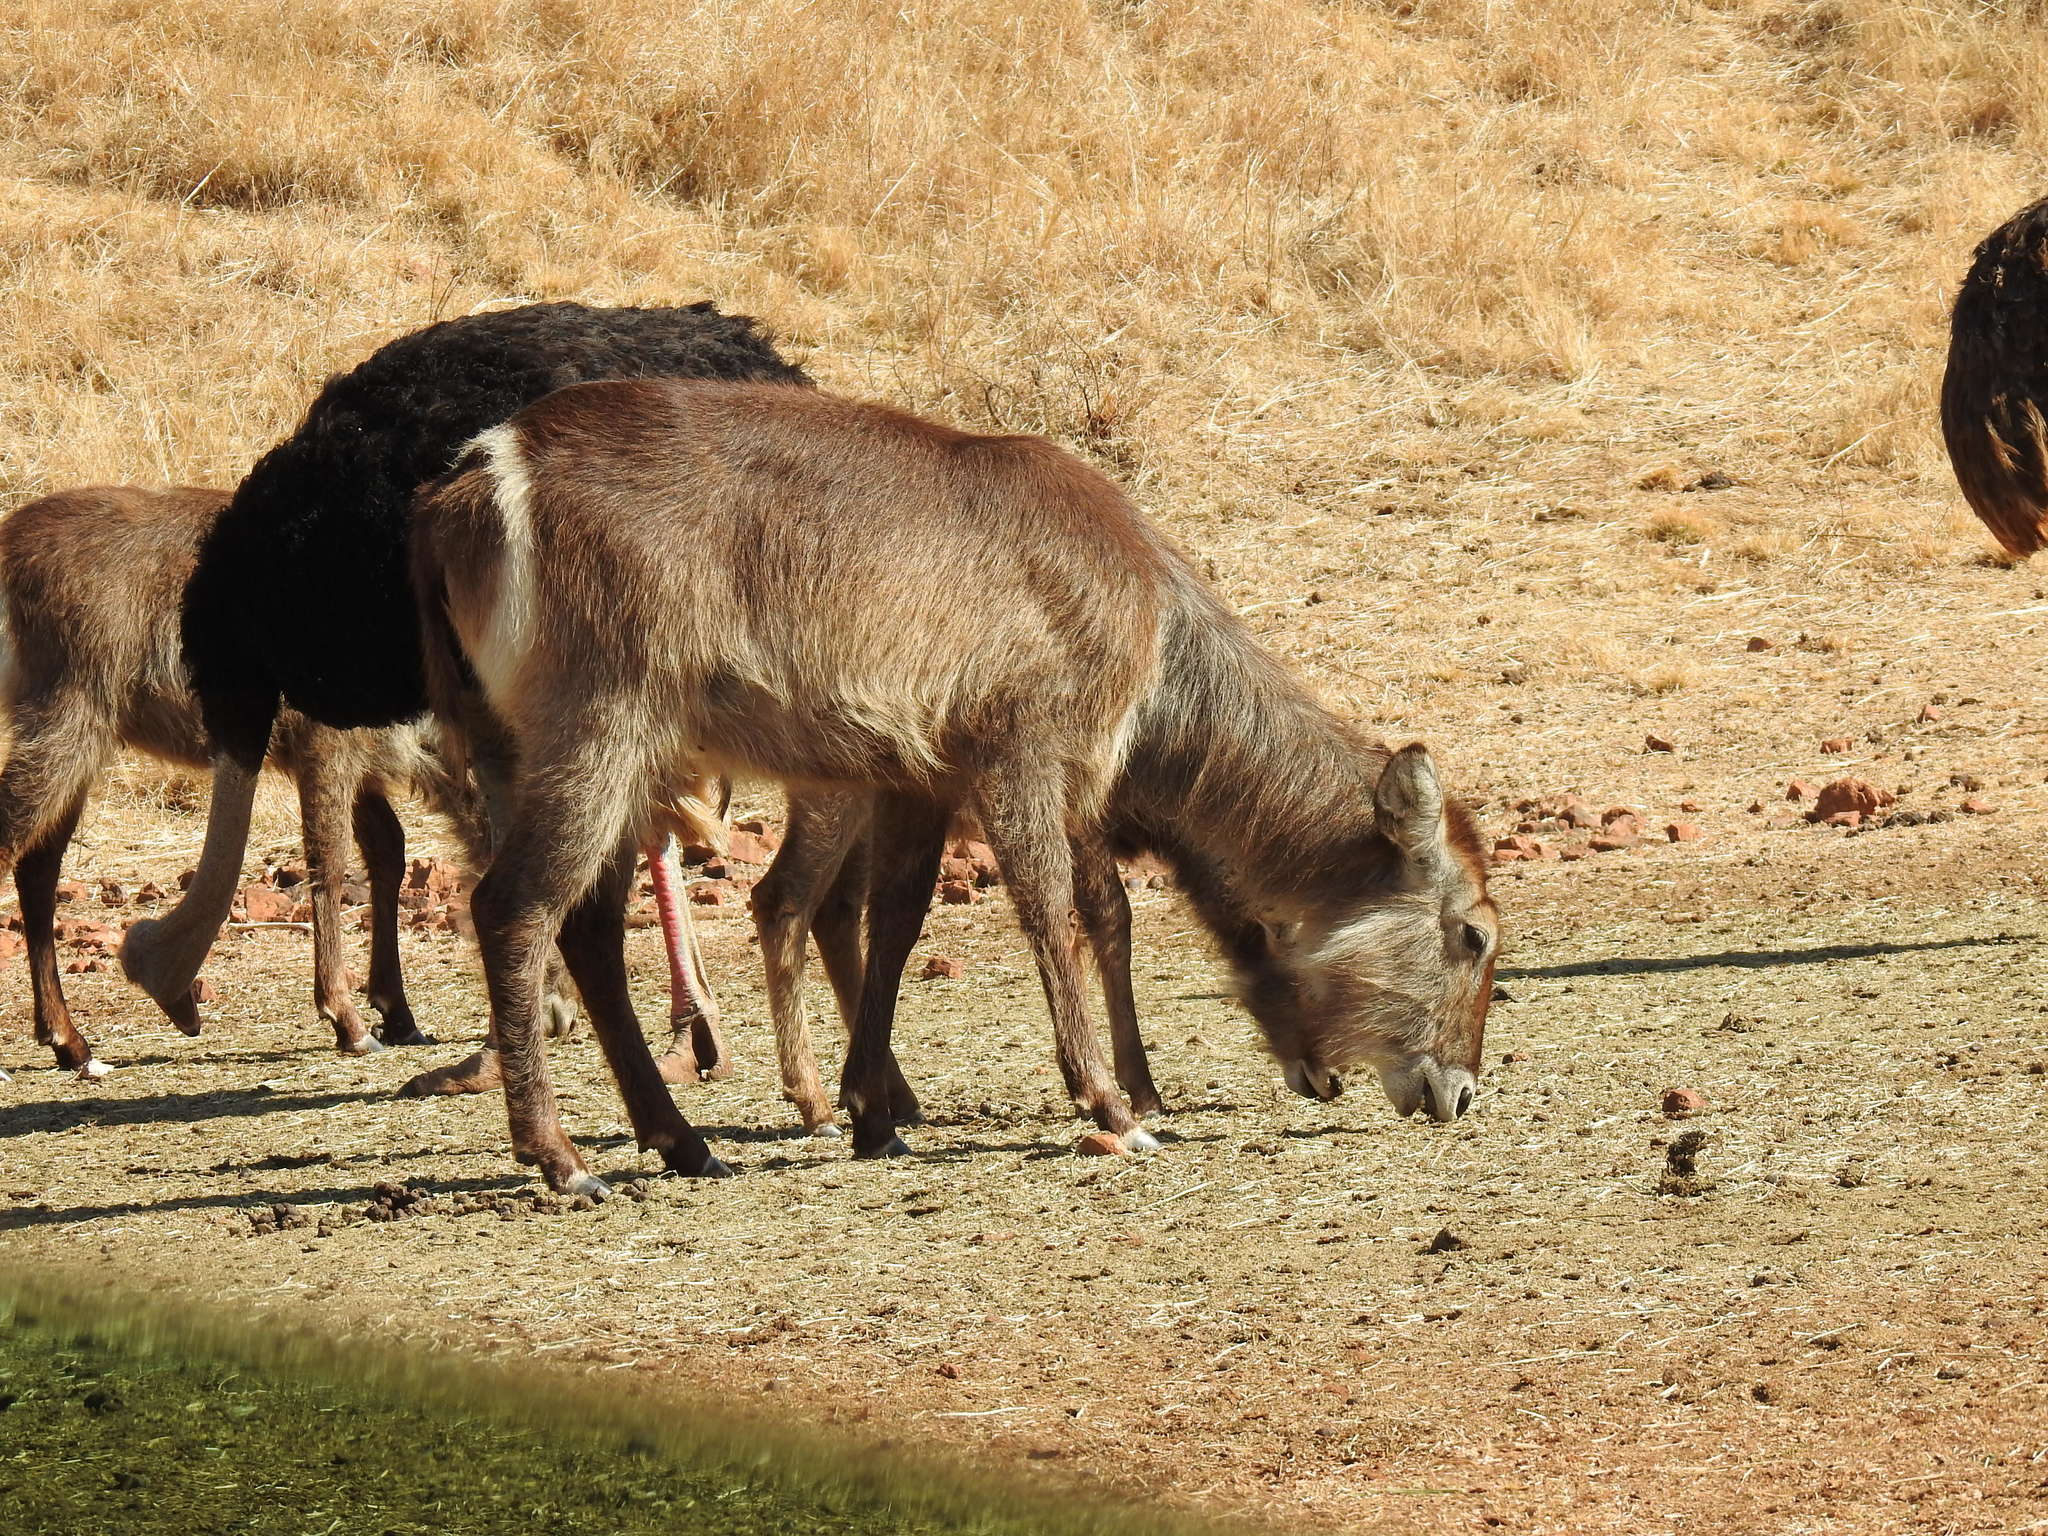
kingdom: Animalia
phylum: Chordata
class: Mammalia
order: Artiodactyla
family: Bovidae
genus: Kobus
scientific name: Kobus ellipsiprymnus
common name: Waterbuck
